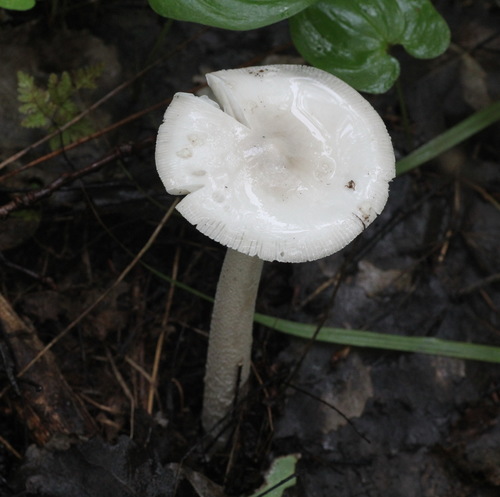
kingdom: Fungi
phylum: Basidiomycota
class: Agaricomycetes
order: Agaricales
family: Amanitaceae
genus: Amanita
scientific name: Amanita vaginata
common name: Grisette
